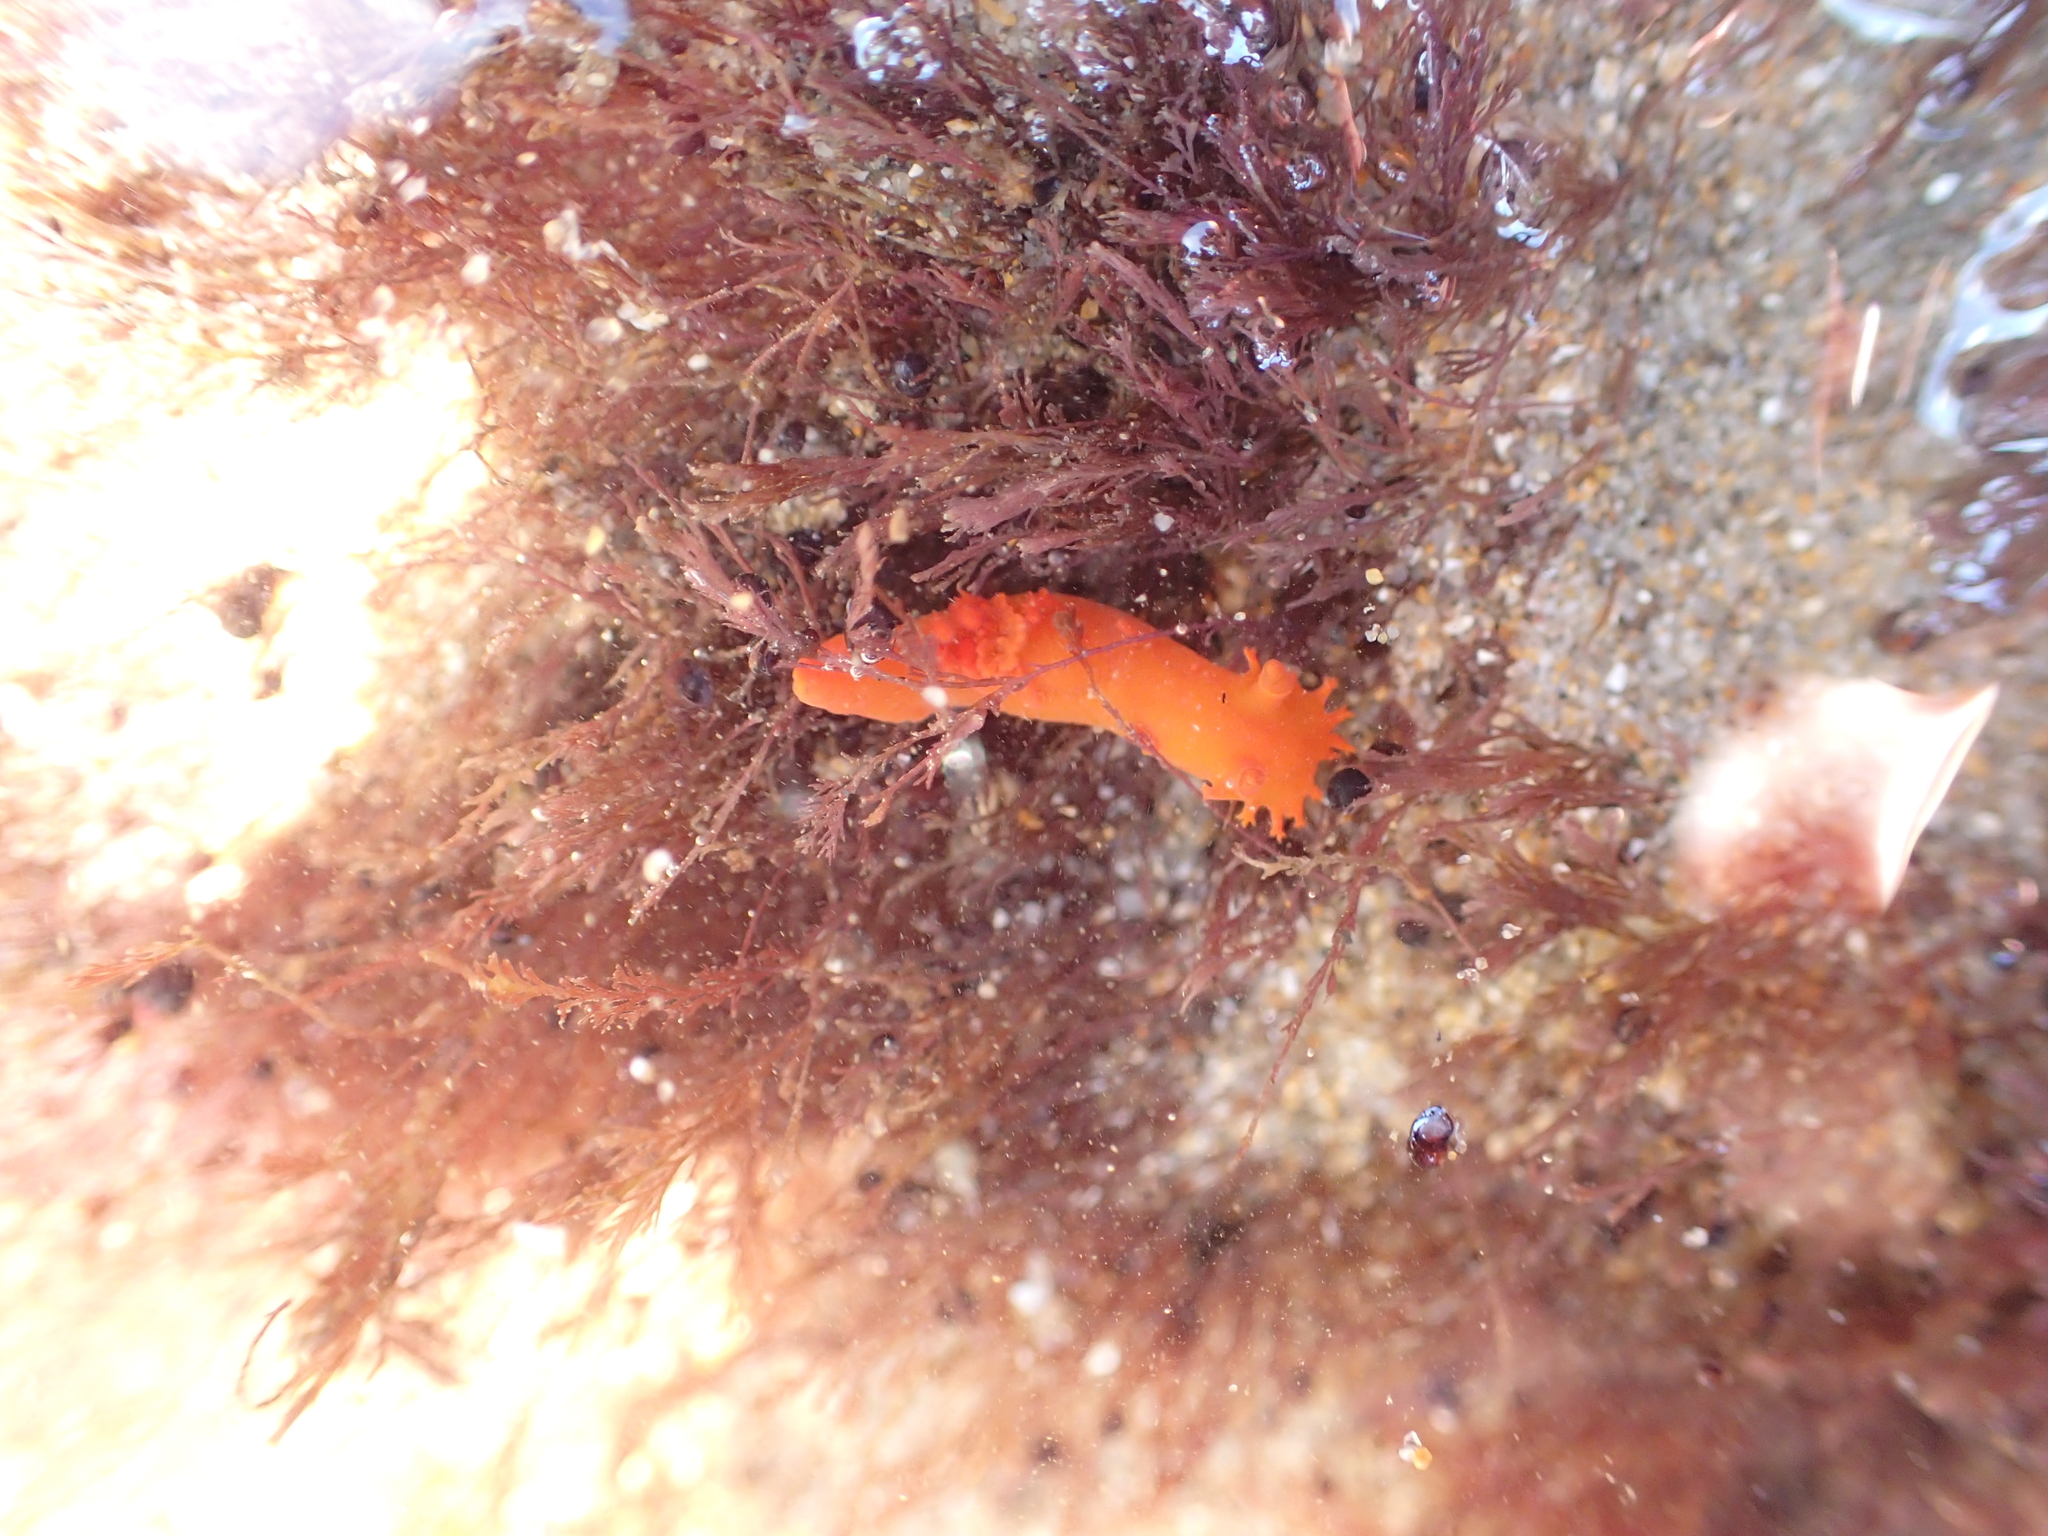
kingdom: Animalia
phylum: Mollusca
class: Gastropoda
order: Nudibranchia
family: Polyceridae
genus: Triopha
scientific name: Triopha maculata
